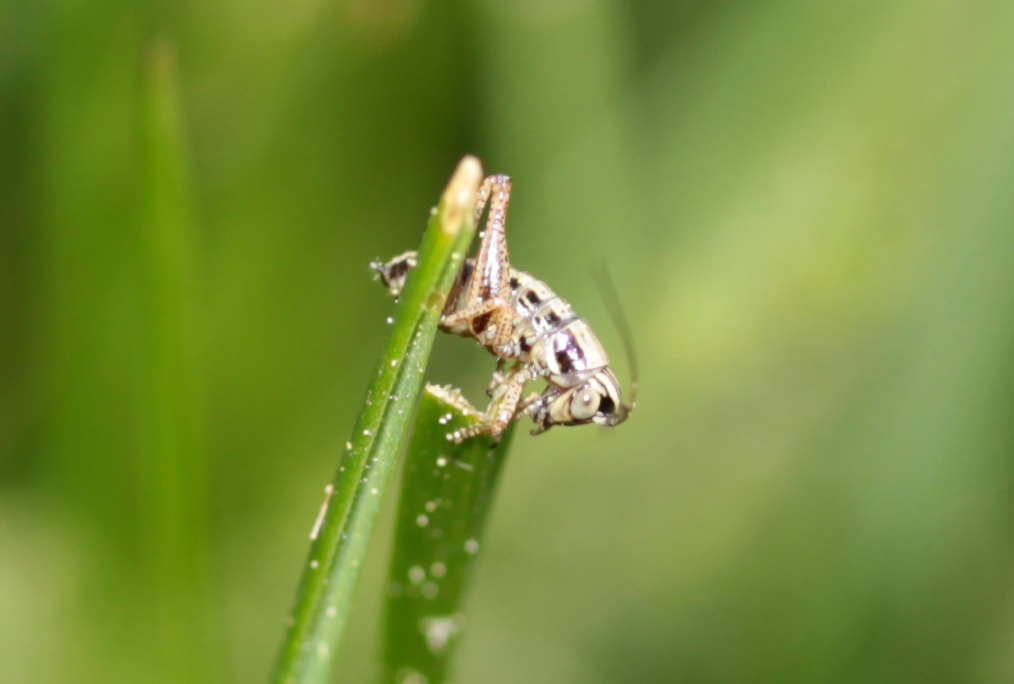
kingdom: Animalia
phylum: Arthropoda
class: Insecta
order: Orthoptera
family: Tettigoniidae
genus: Roeseliana
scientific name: Roeseliana roeselii
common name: Roesel's bush cricket
